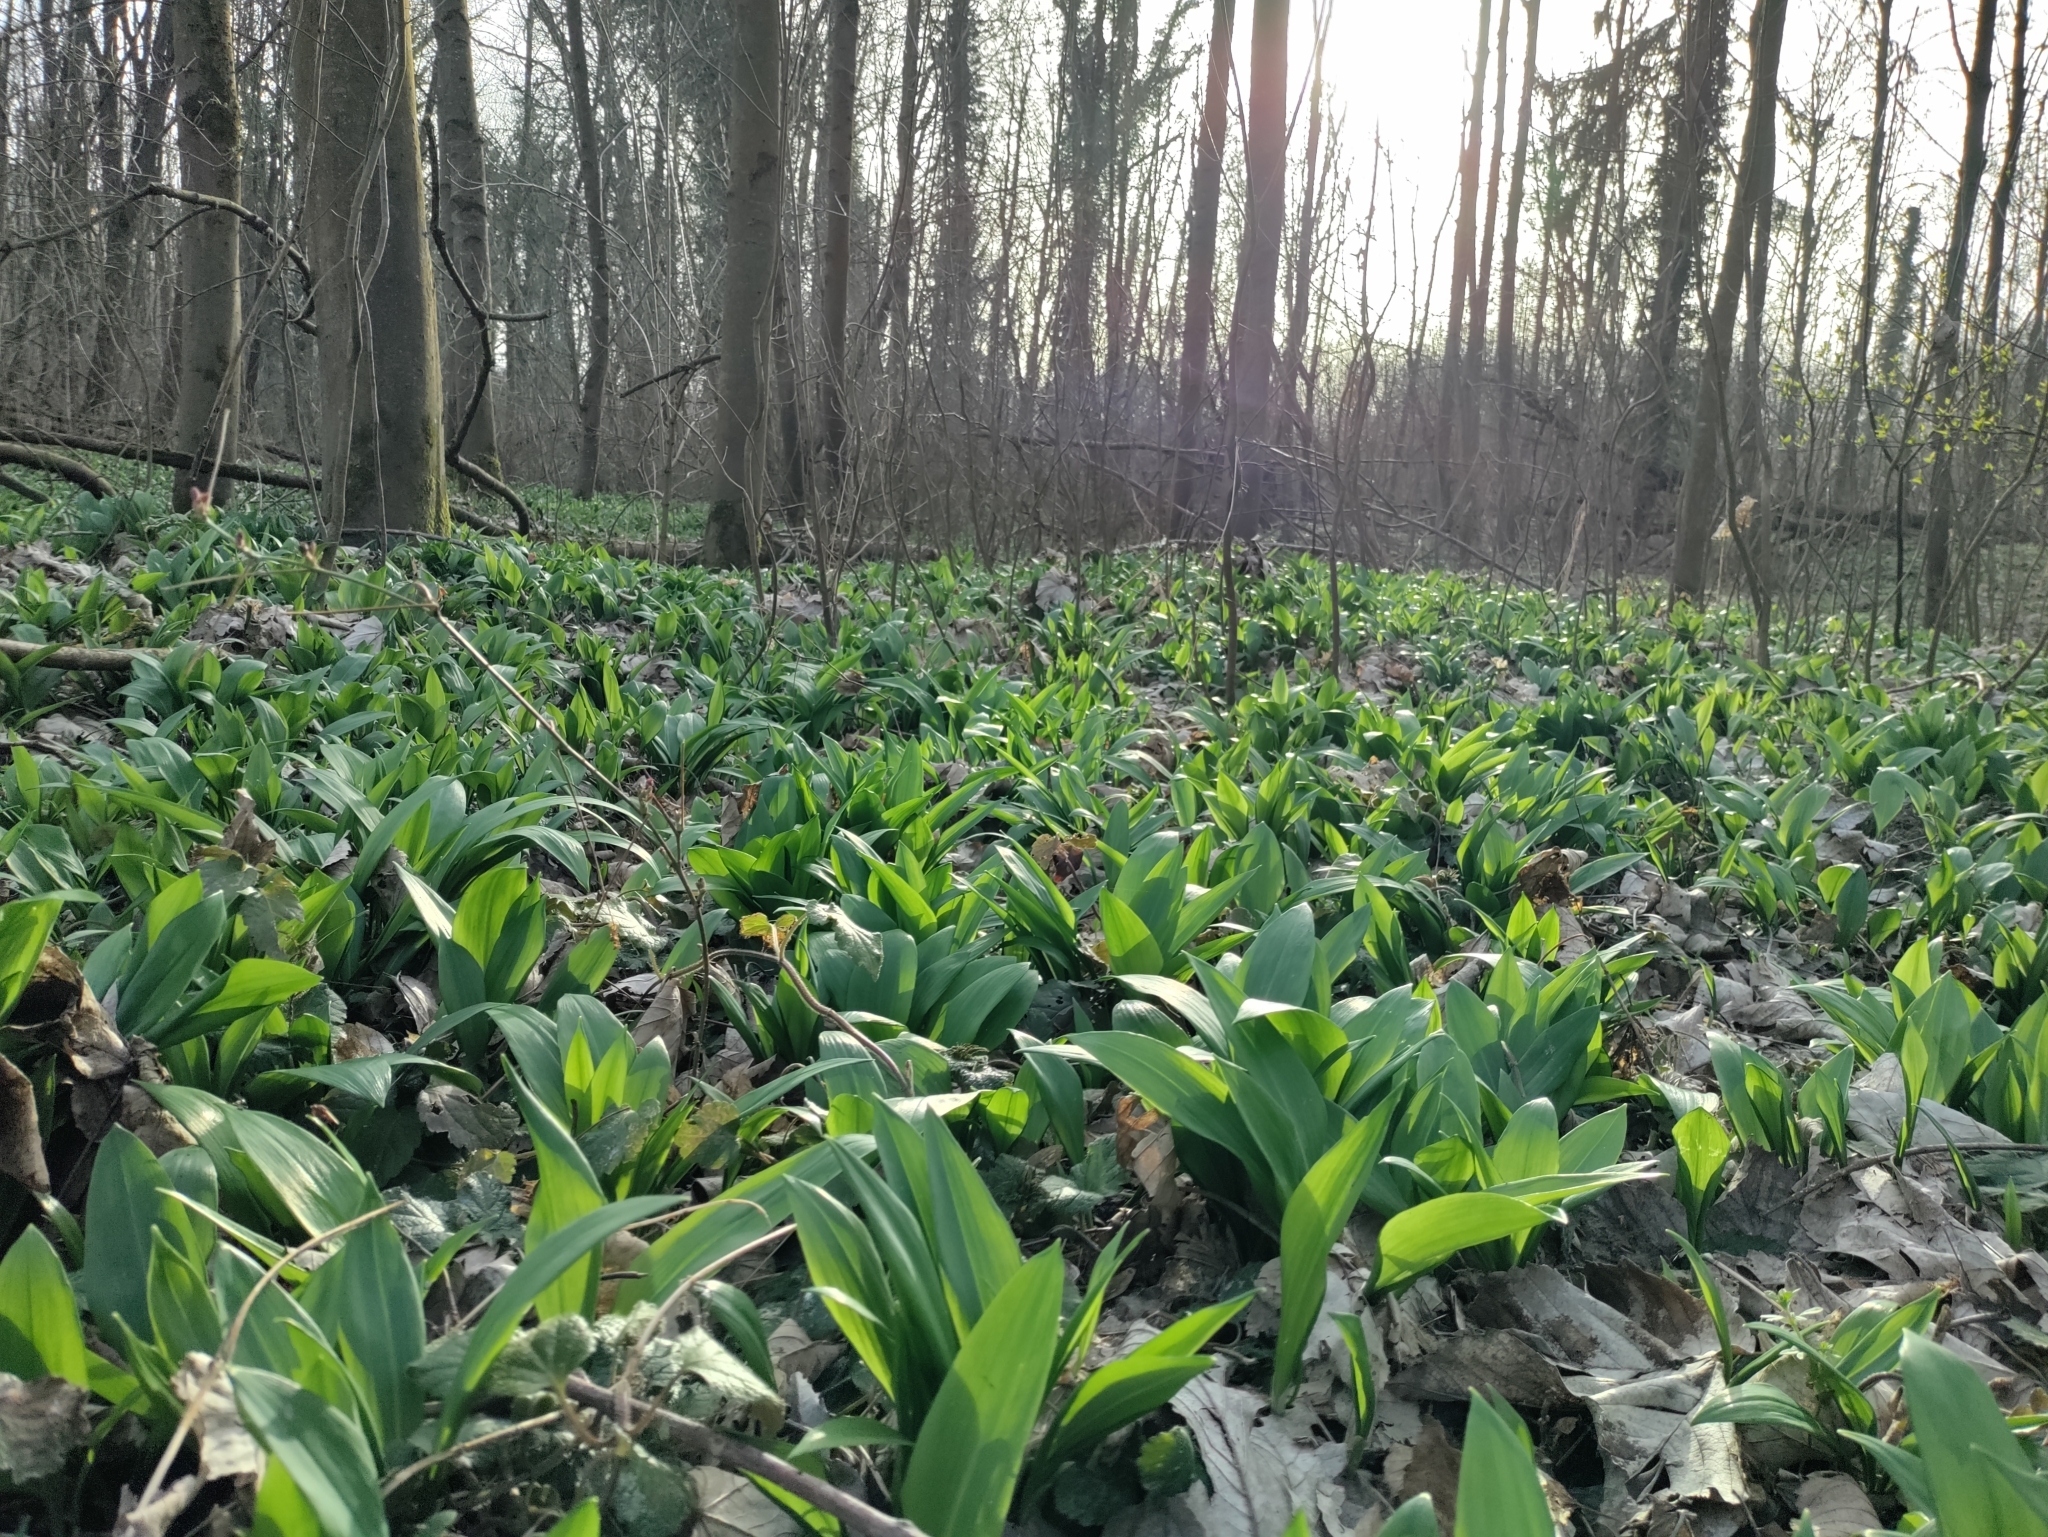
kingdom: Plantae
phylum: Tracheophyta
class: Liliopsida
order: Asparagales
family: Amaryllidaceae
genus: Allium
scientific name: Allium ursinum
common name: Ramsons
